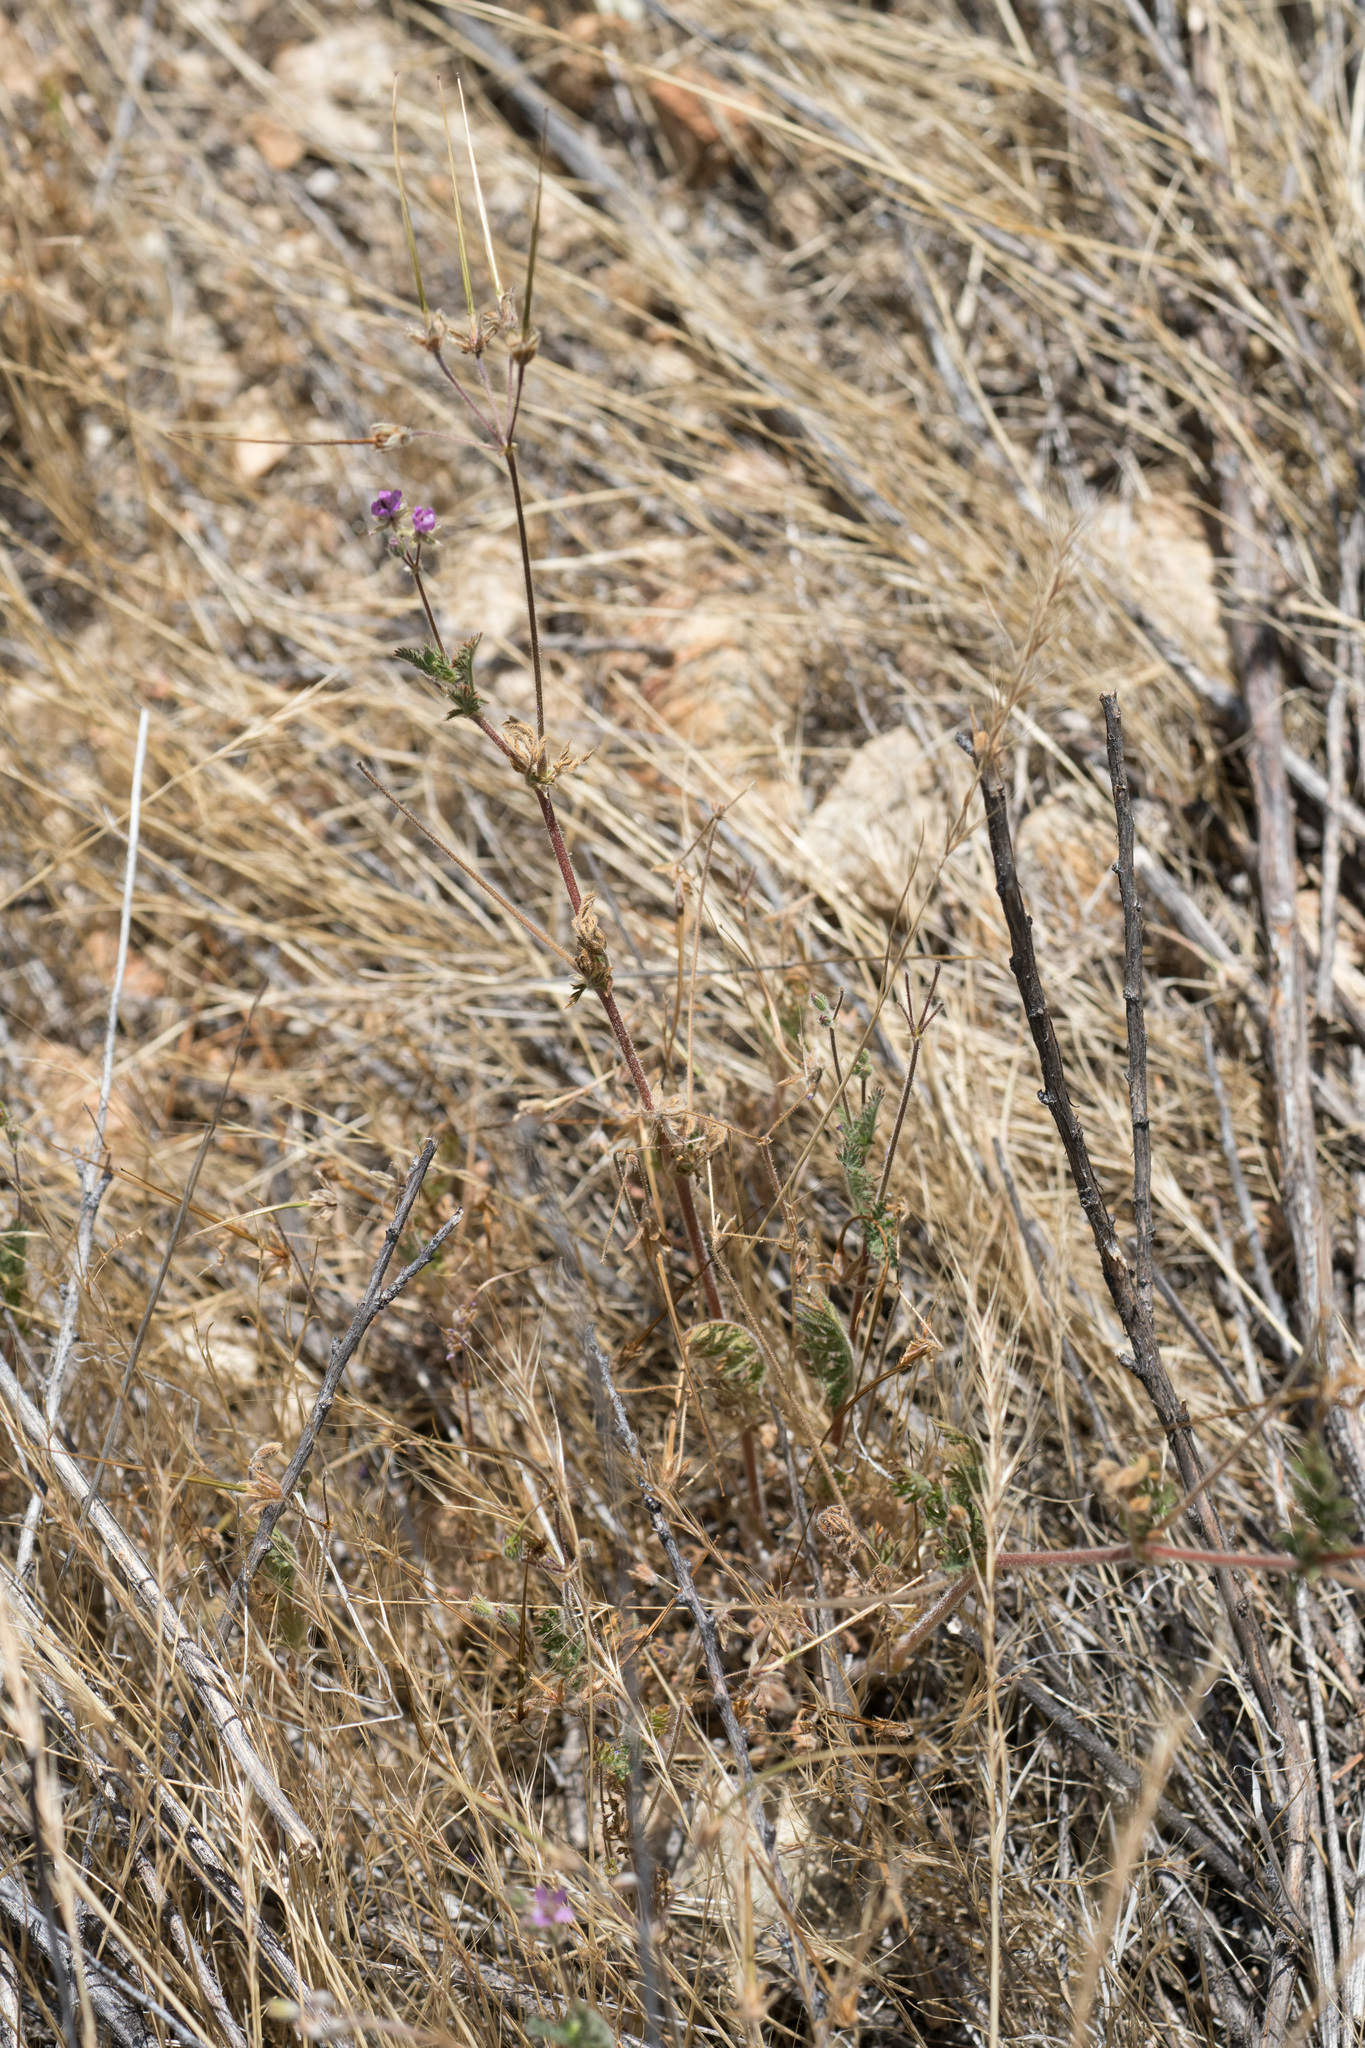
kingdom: Plantae
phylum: Tracheophyta
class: Magnoliopsida
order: Geraniales
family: Geraniaceae
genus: Erodium
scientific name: Erodium cicutarium
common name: Common stork's-bill
